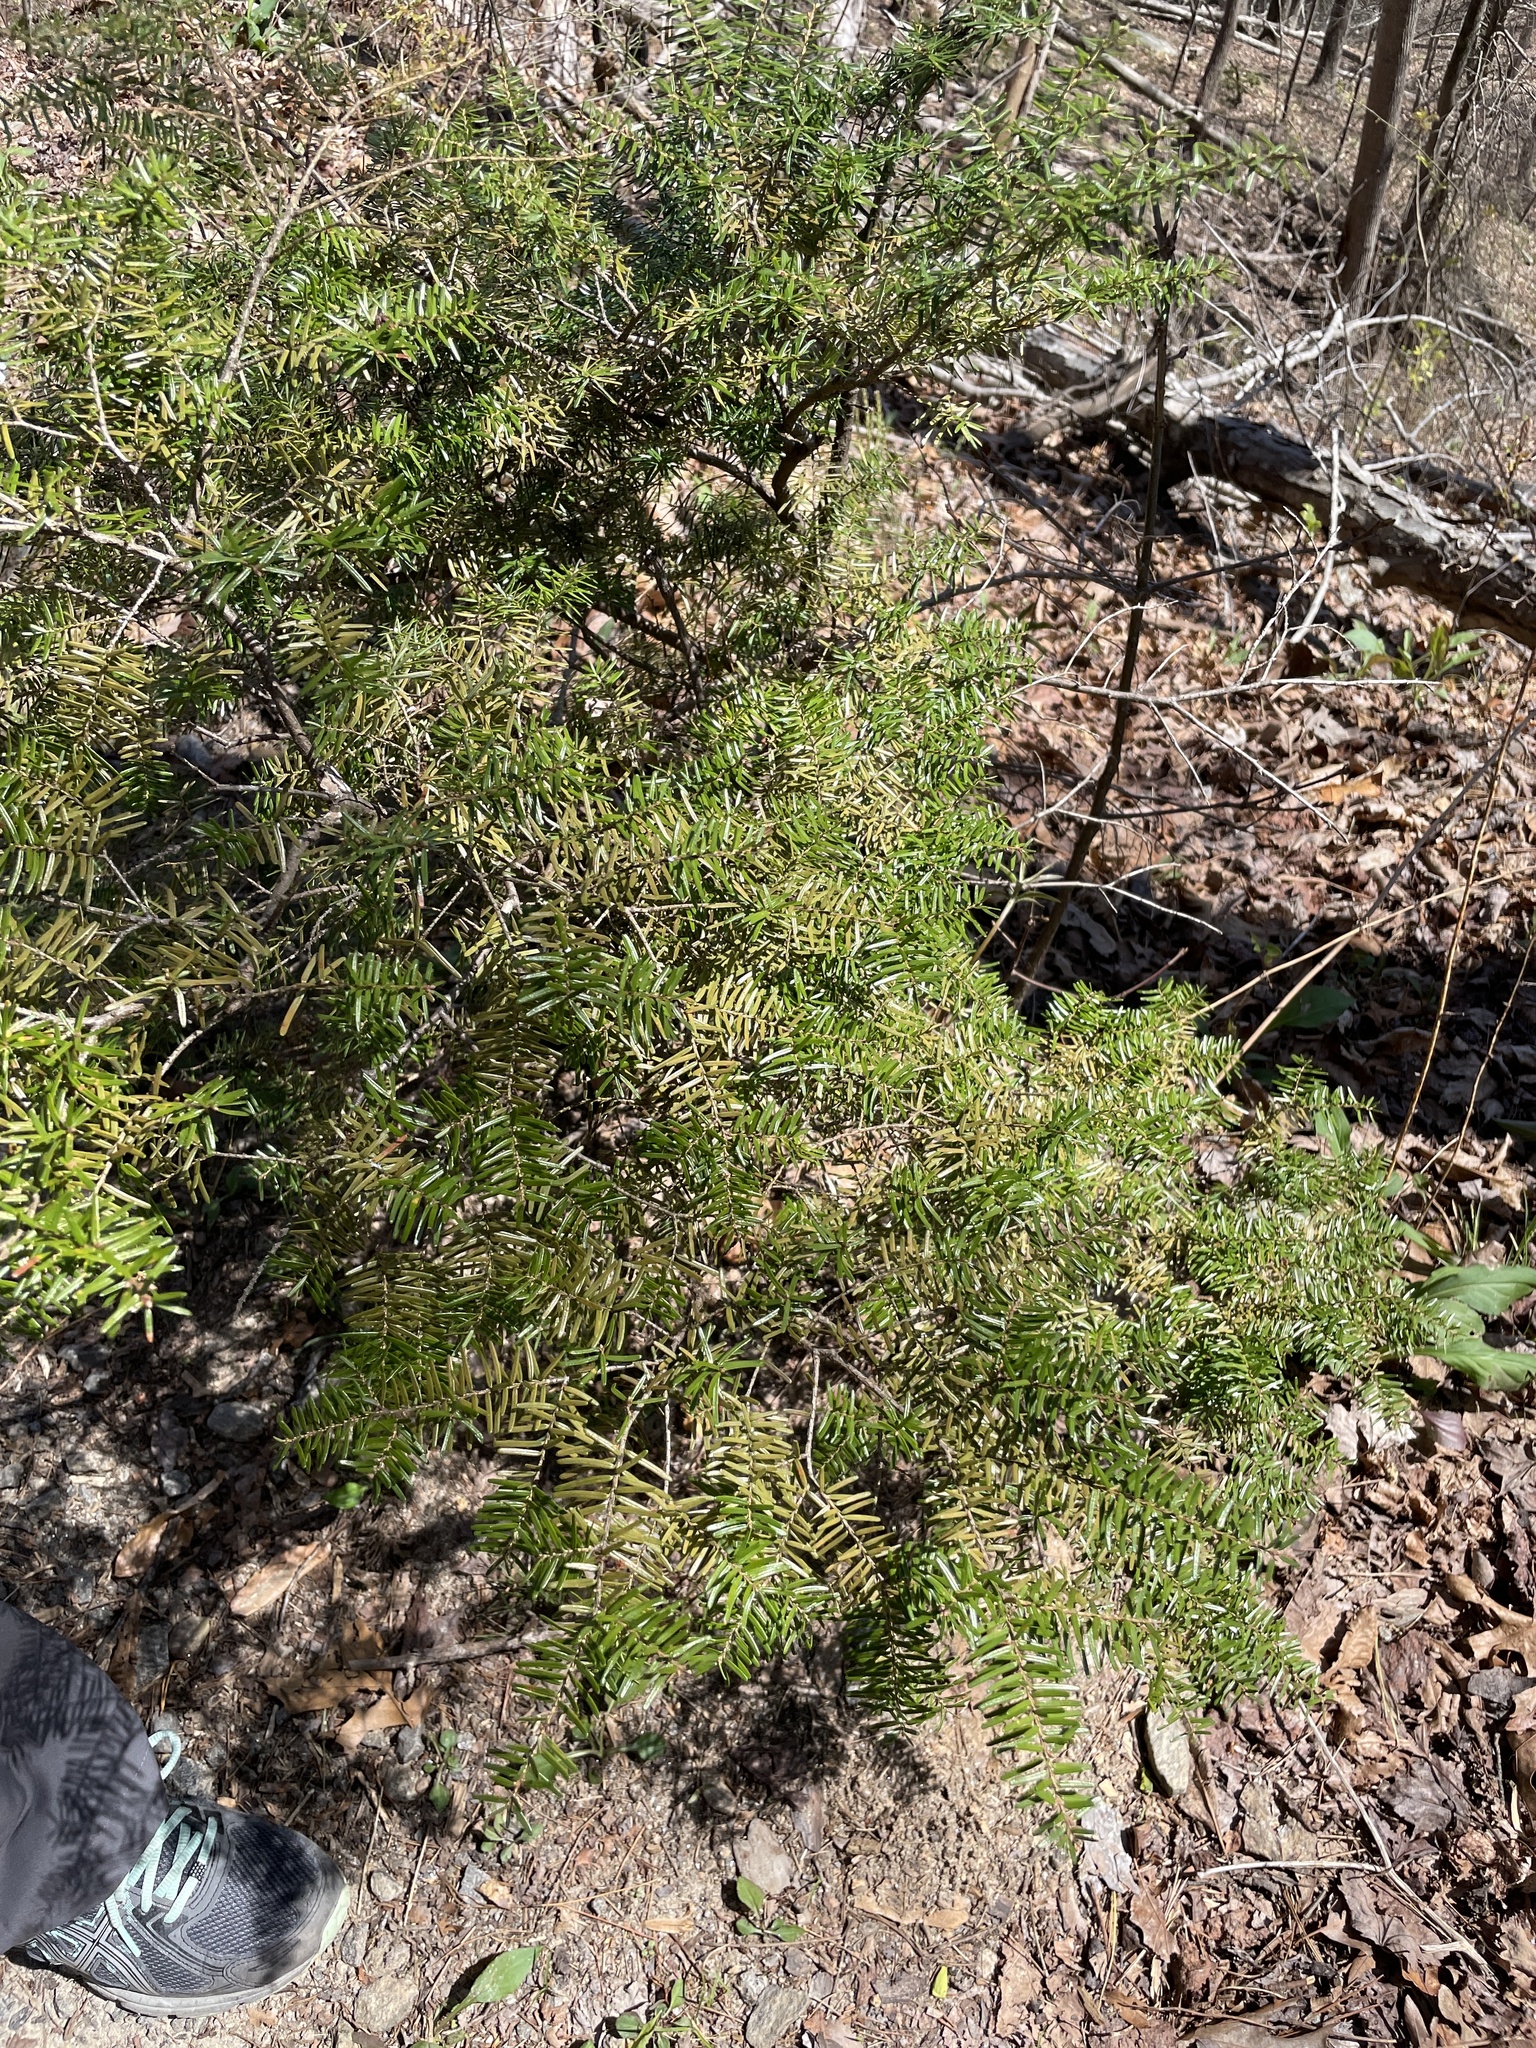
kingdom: Plantae
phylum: Tracheophyta
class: Pinopsida
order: Pinales
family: Pinaceae
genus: Tsuga
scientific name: Tsuga canadensis
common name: Eastern hemlock
